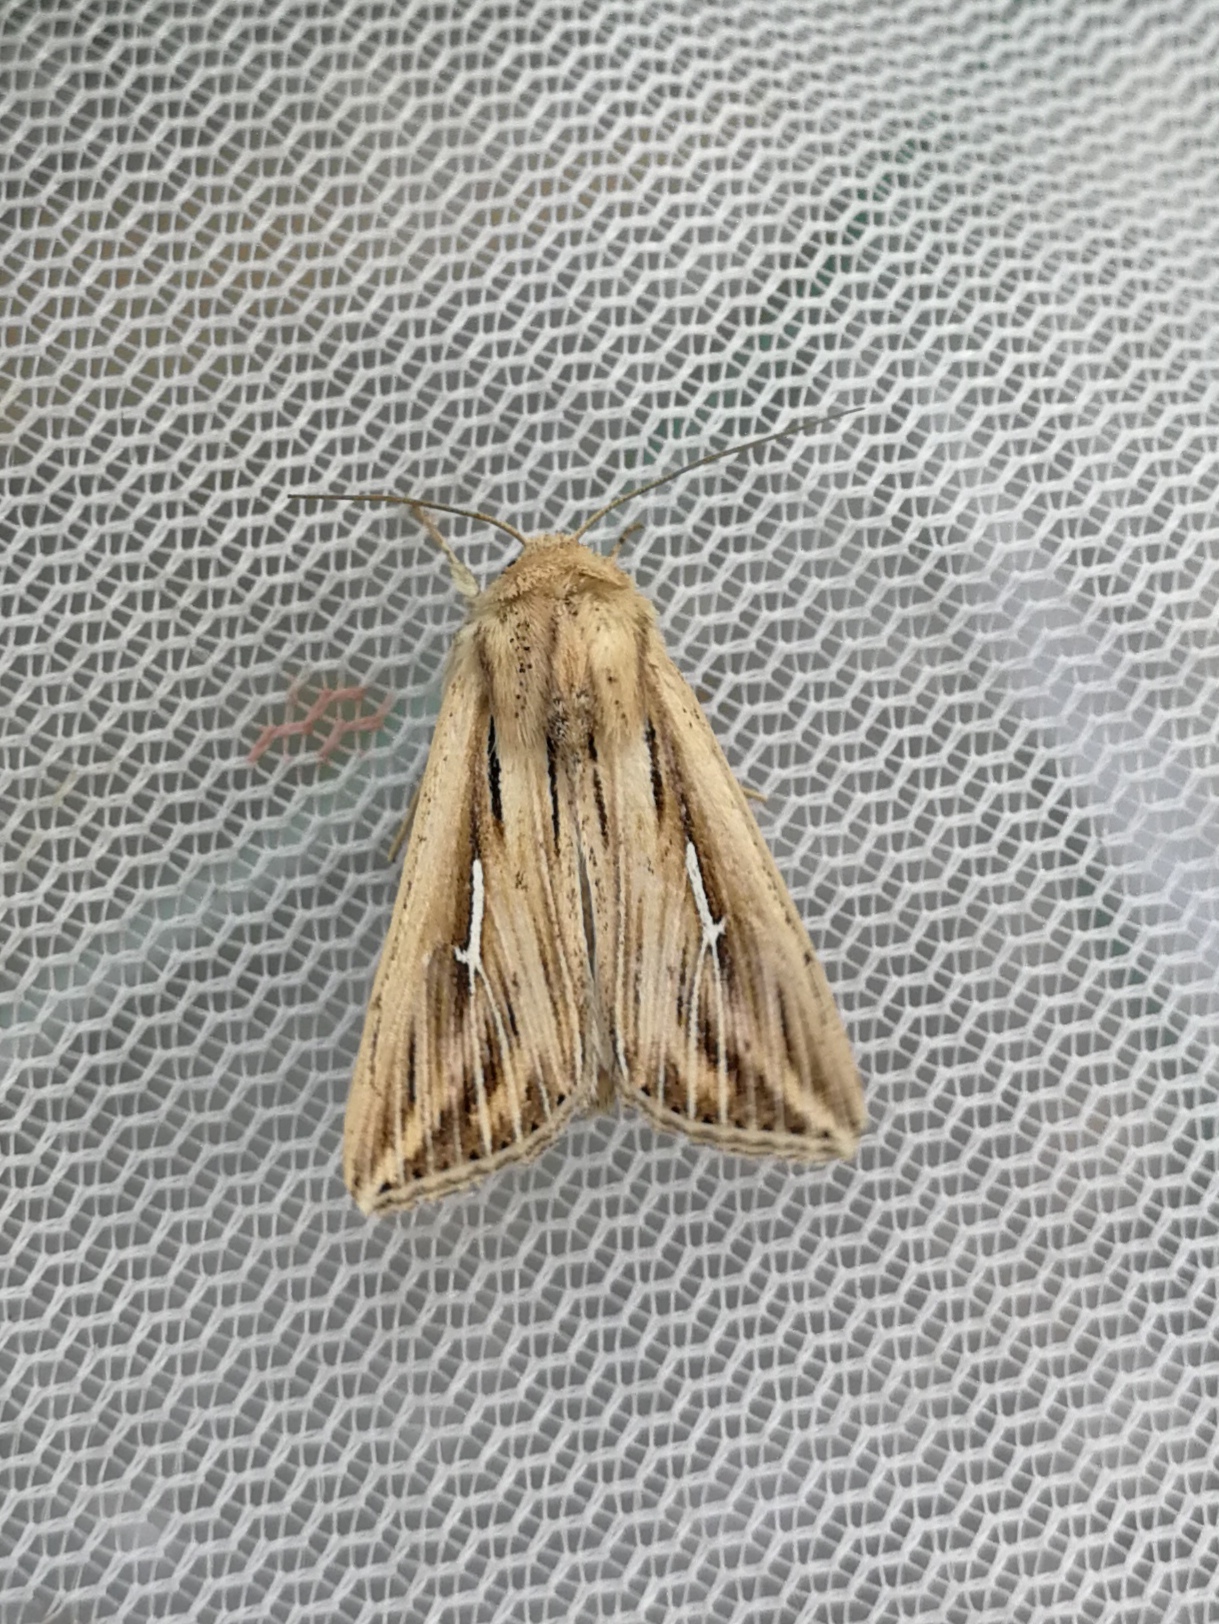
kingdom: Animalia
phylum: Arthropoda
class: Insecta
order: Lepidoptera
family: Noctuidae
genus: Mythimna
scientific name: Mythimna l-album
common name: L-album wainscot
